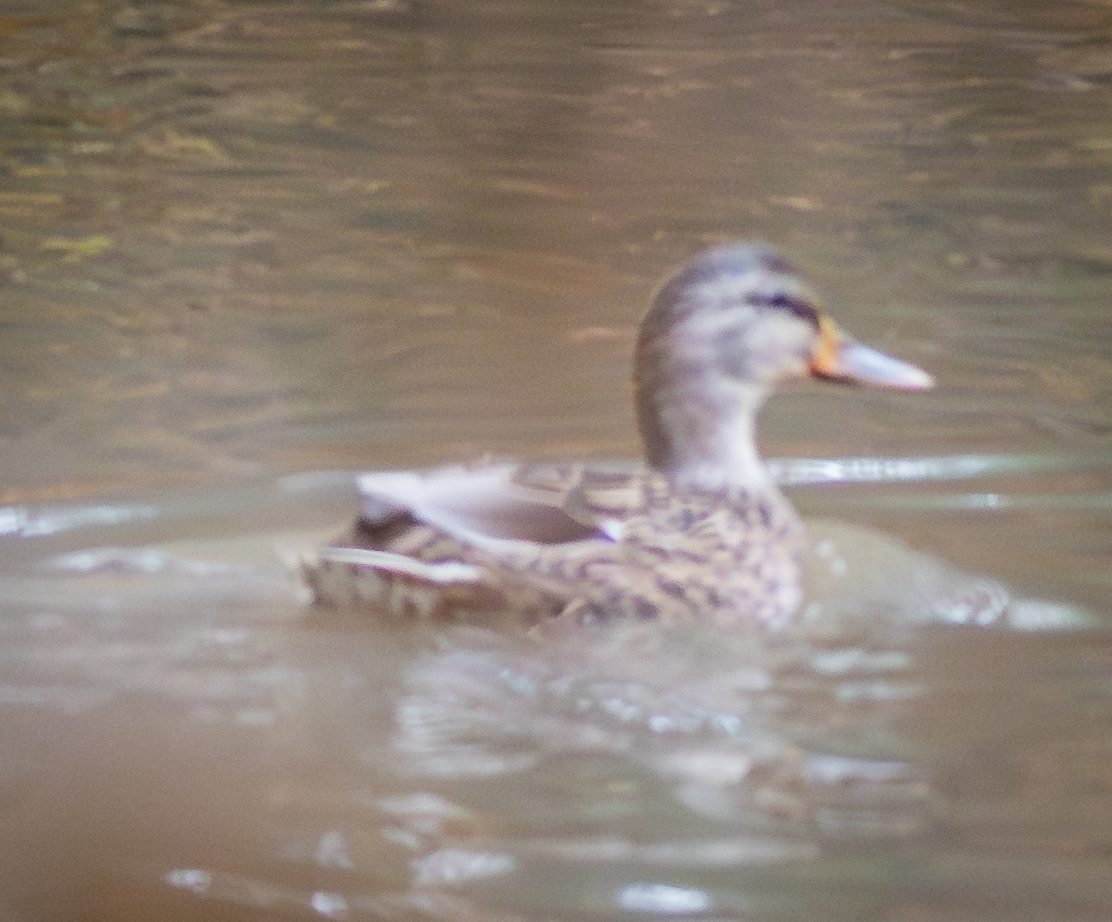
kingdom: Animalia
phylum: Chordata
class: Aves
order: Anseriformes
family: Anatidae
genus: Anas
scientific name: Anas platyrhynchos
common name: Mallard
